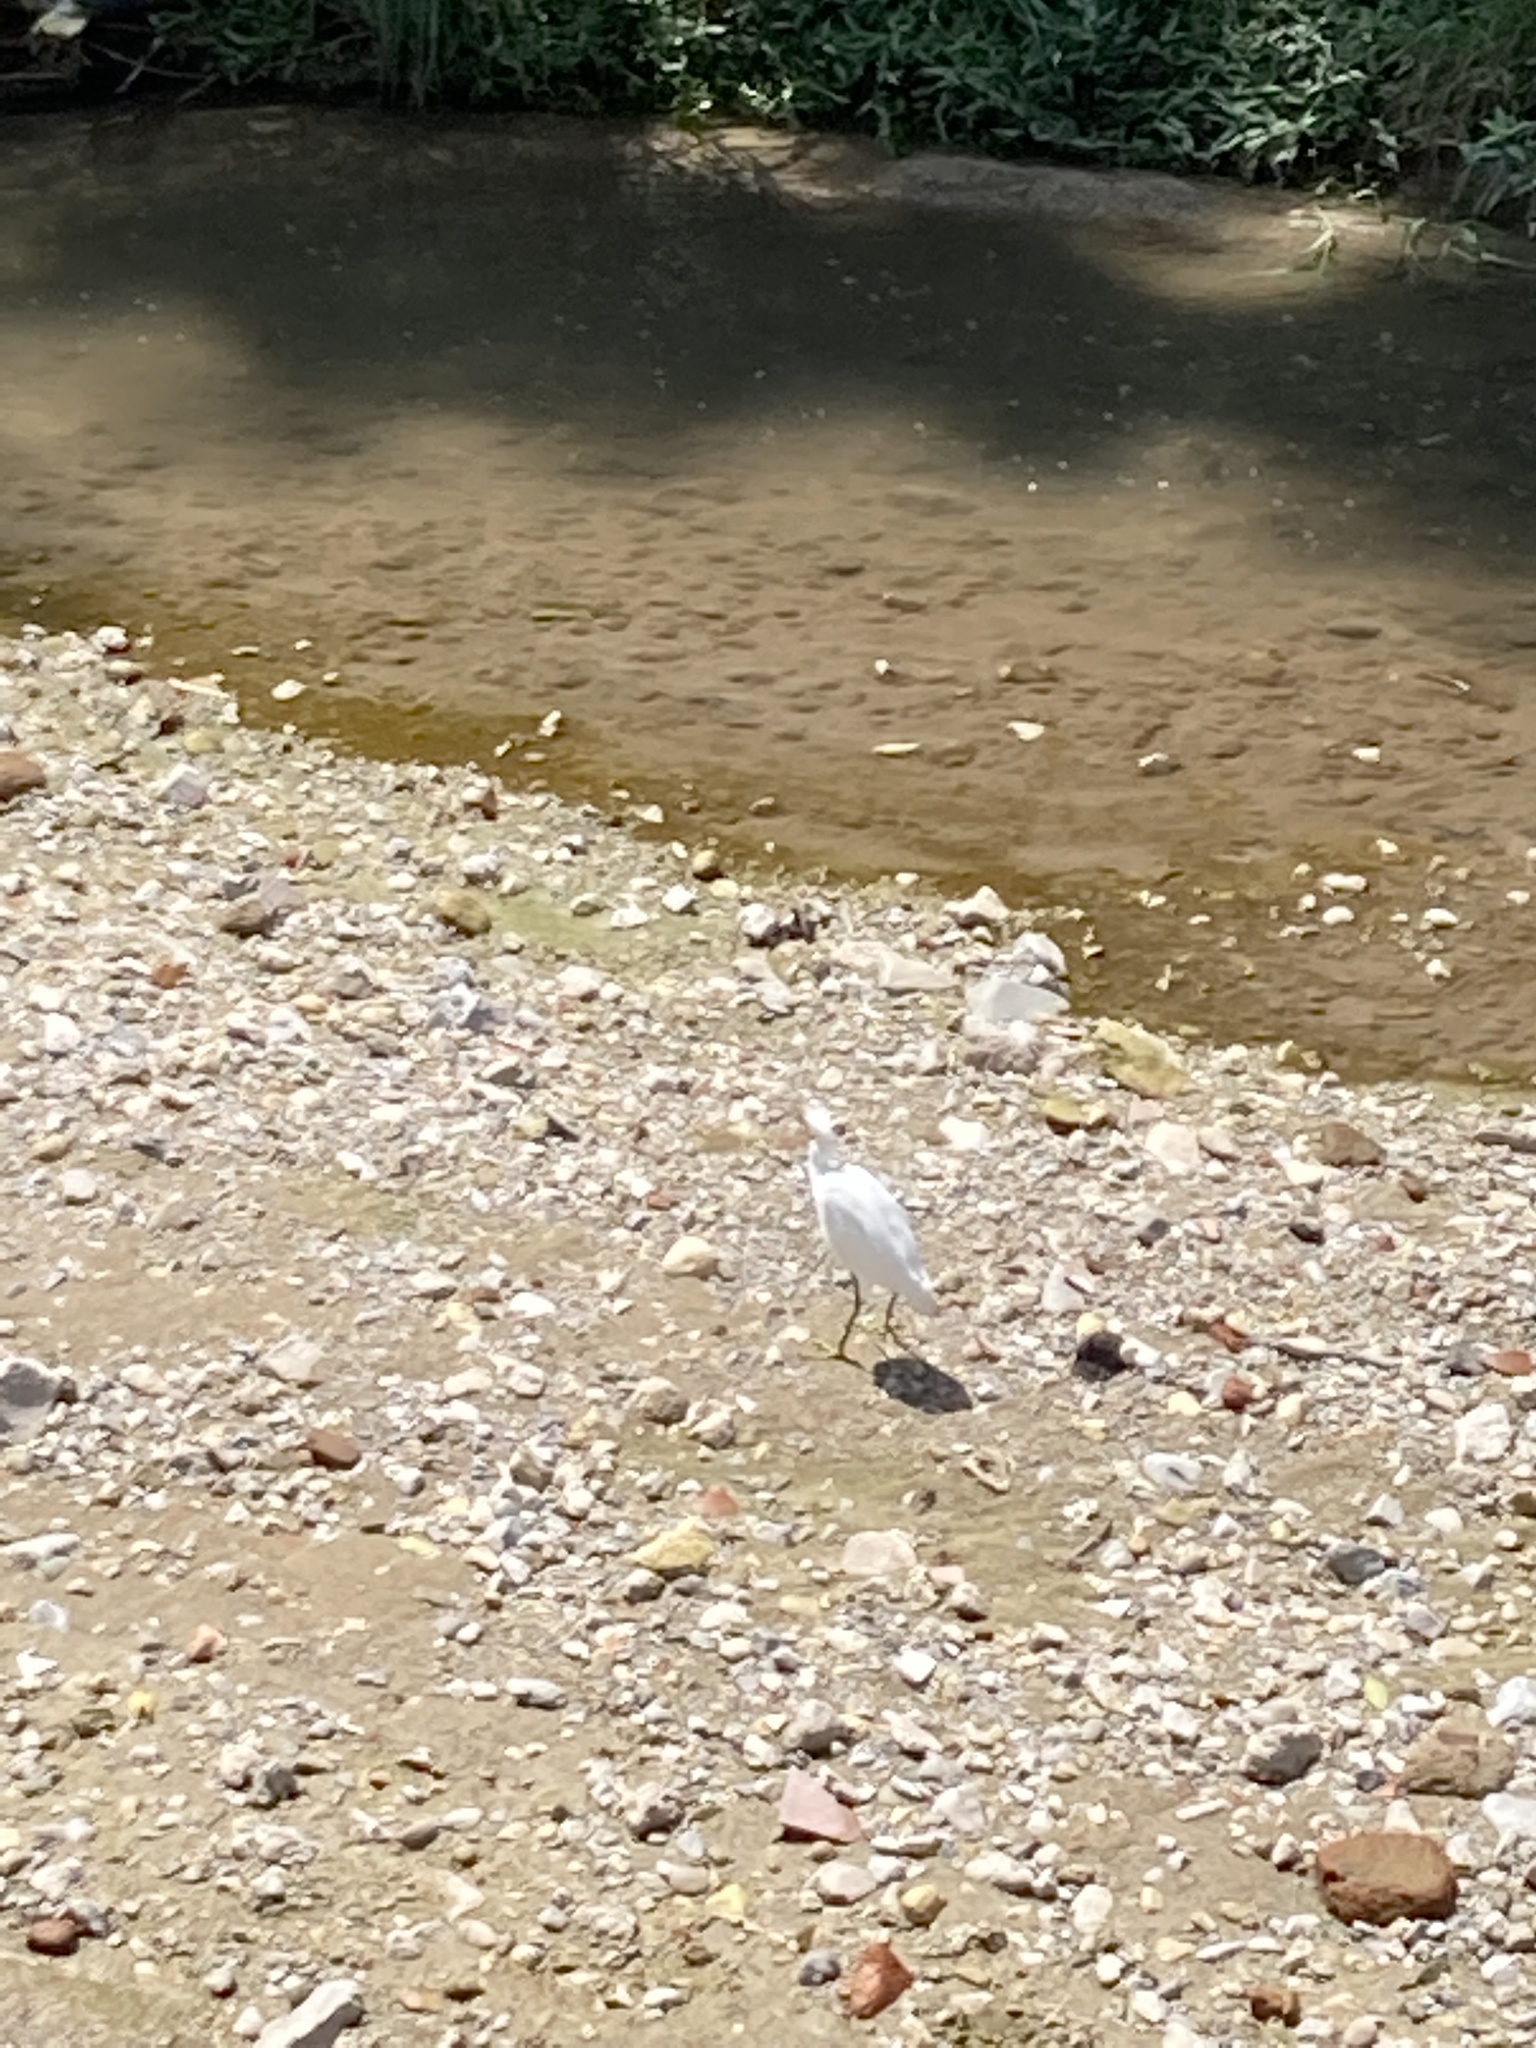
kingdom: Animalia
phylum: Chordata
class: Aves
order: Pelecaniformes
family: Ardeidae
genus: Egretta
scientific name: Egretta thula
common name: Snowy egret
